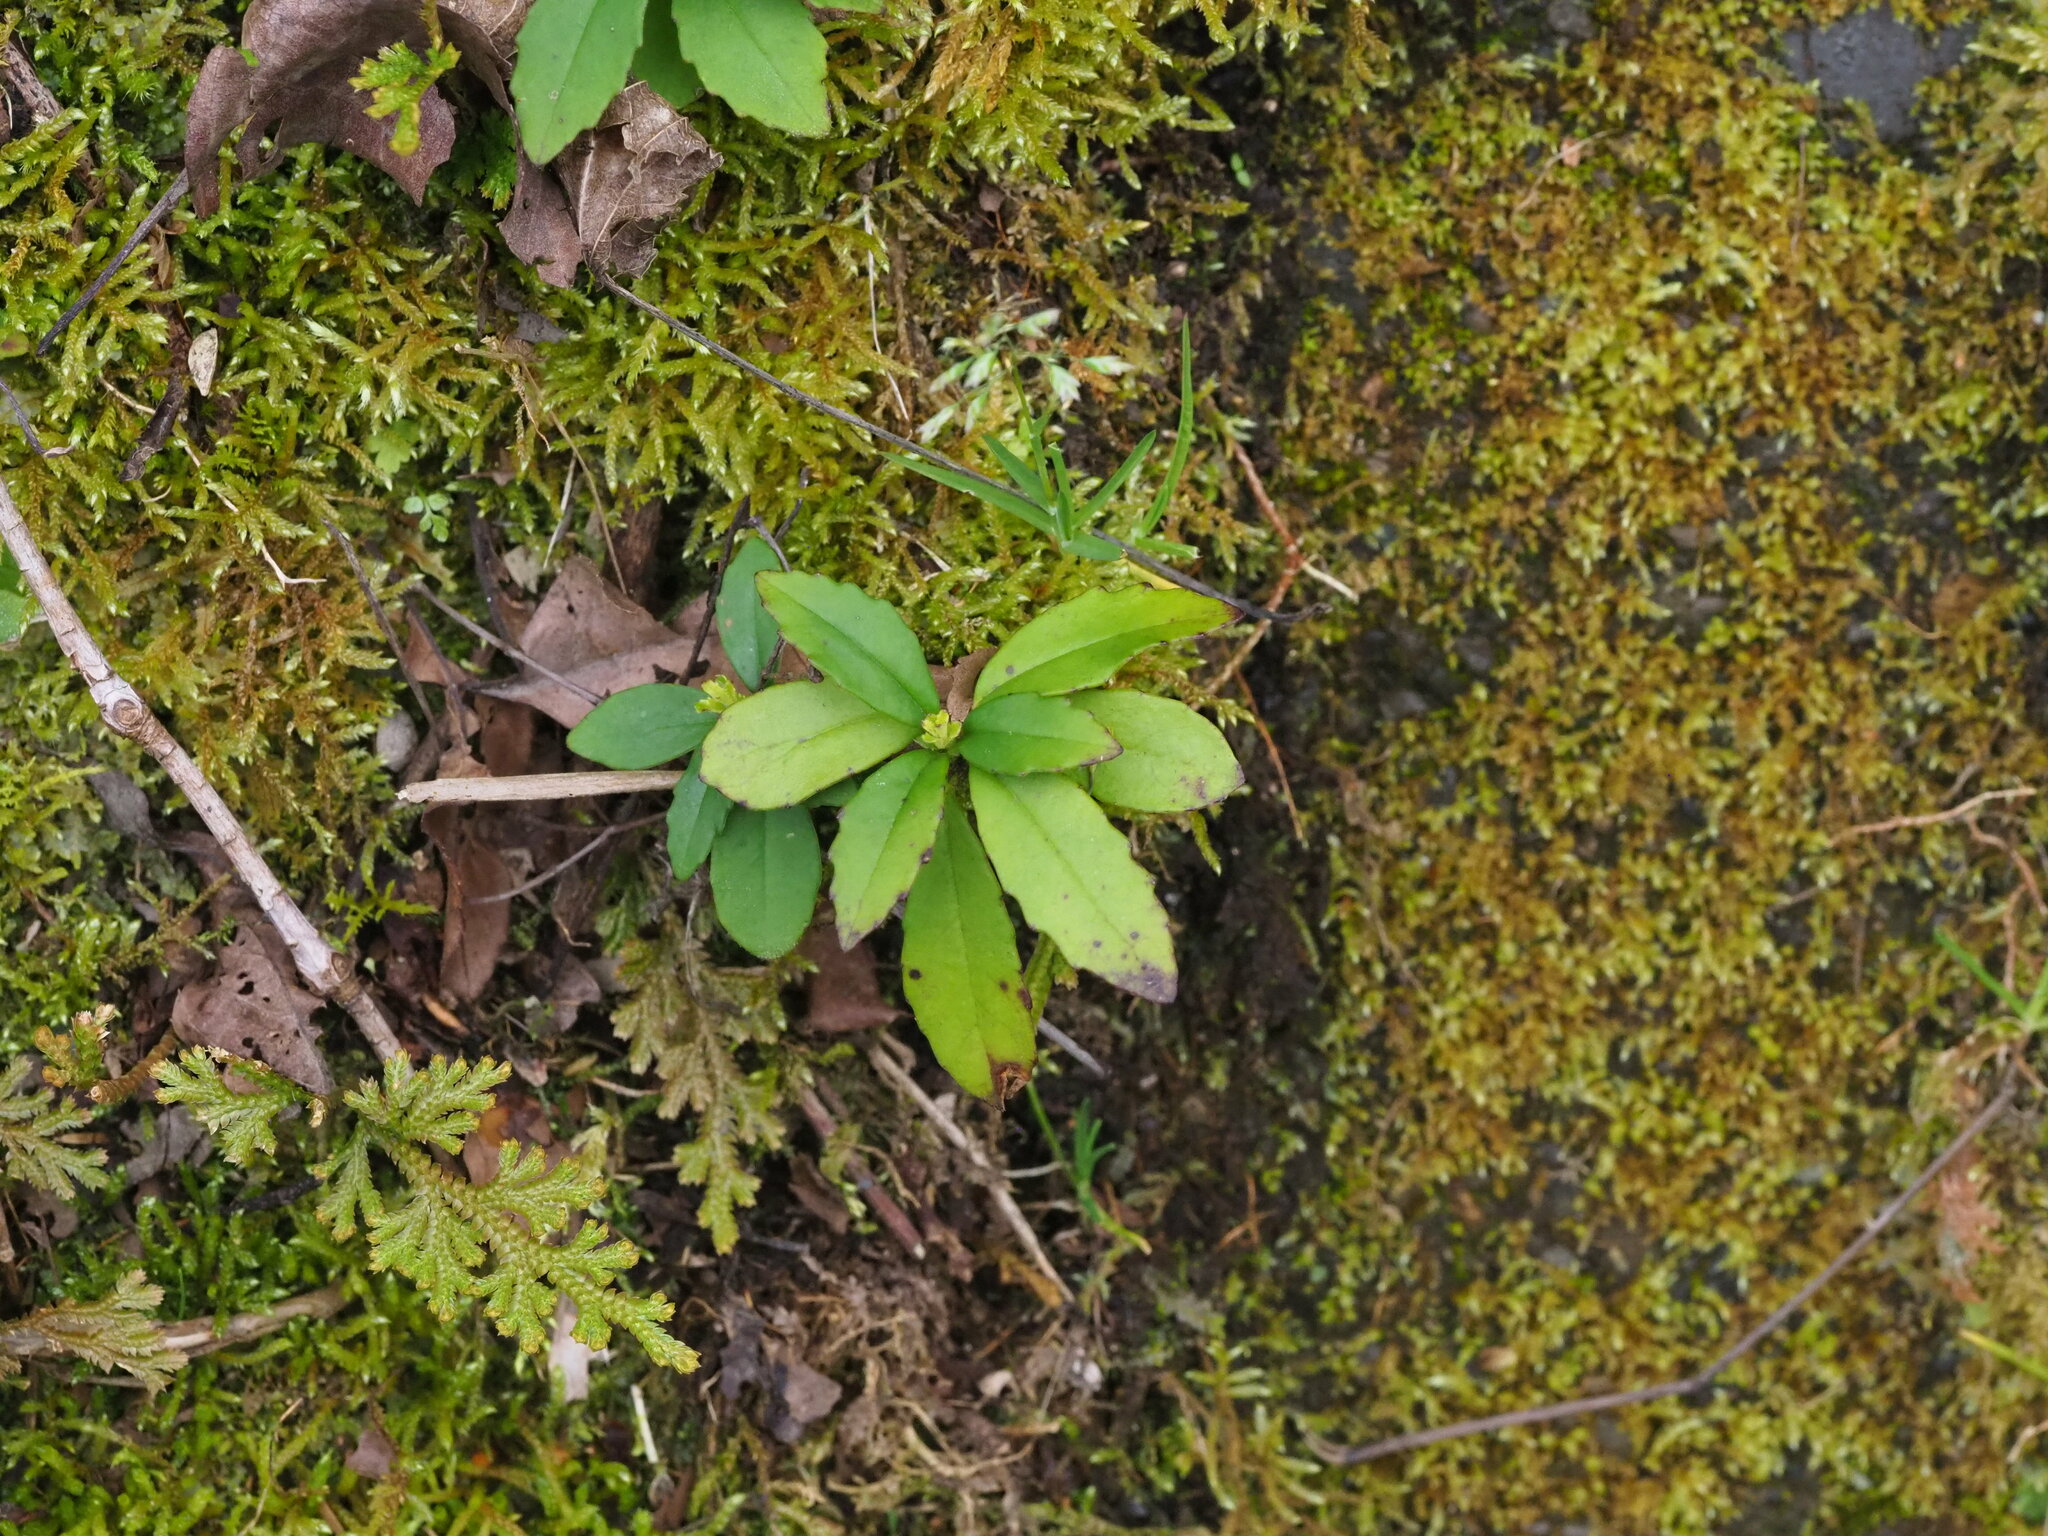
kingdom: Plantae
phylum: Tracheophyta
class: Magnoliopsida
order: Lamiales
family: Gesneriaceae
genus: Lysionotus
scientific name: Lysionotus pauciflorus
